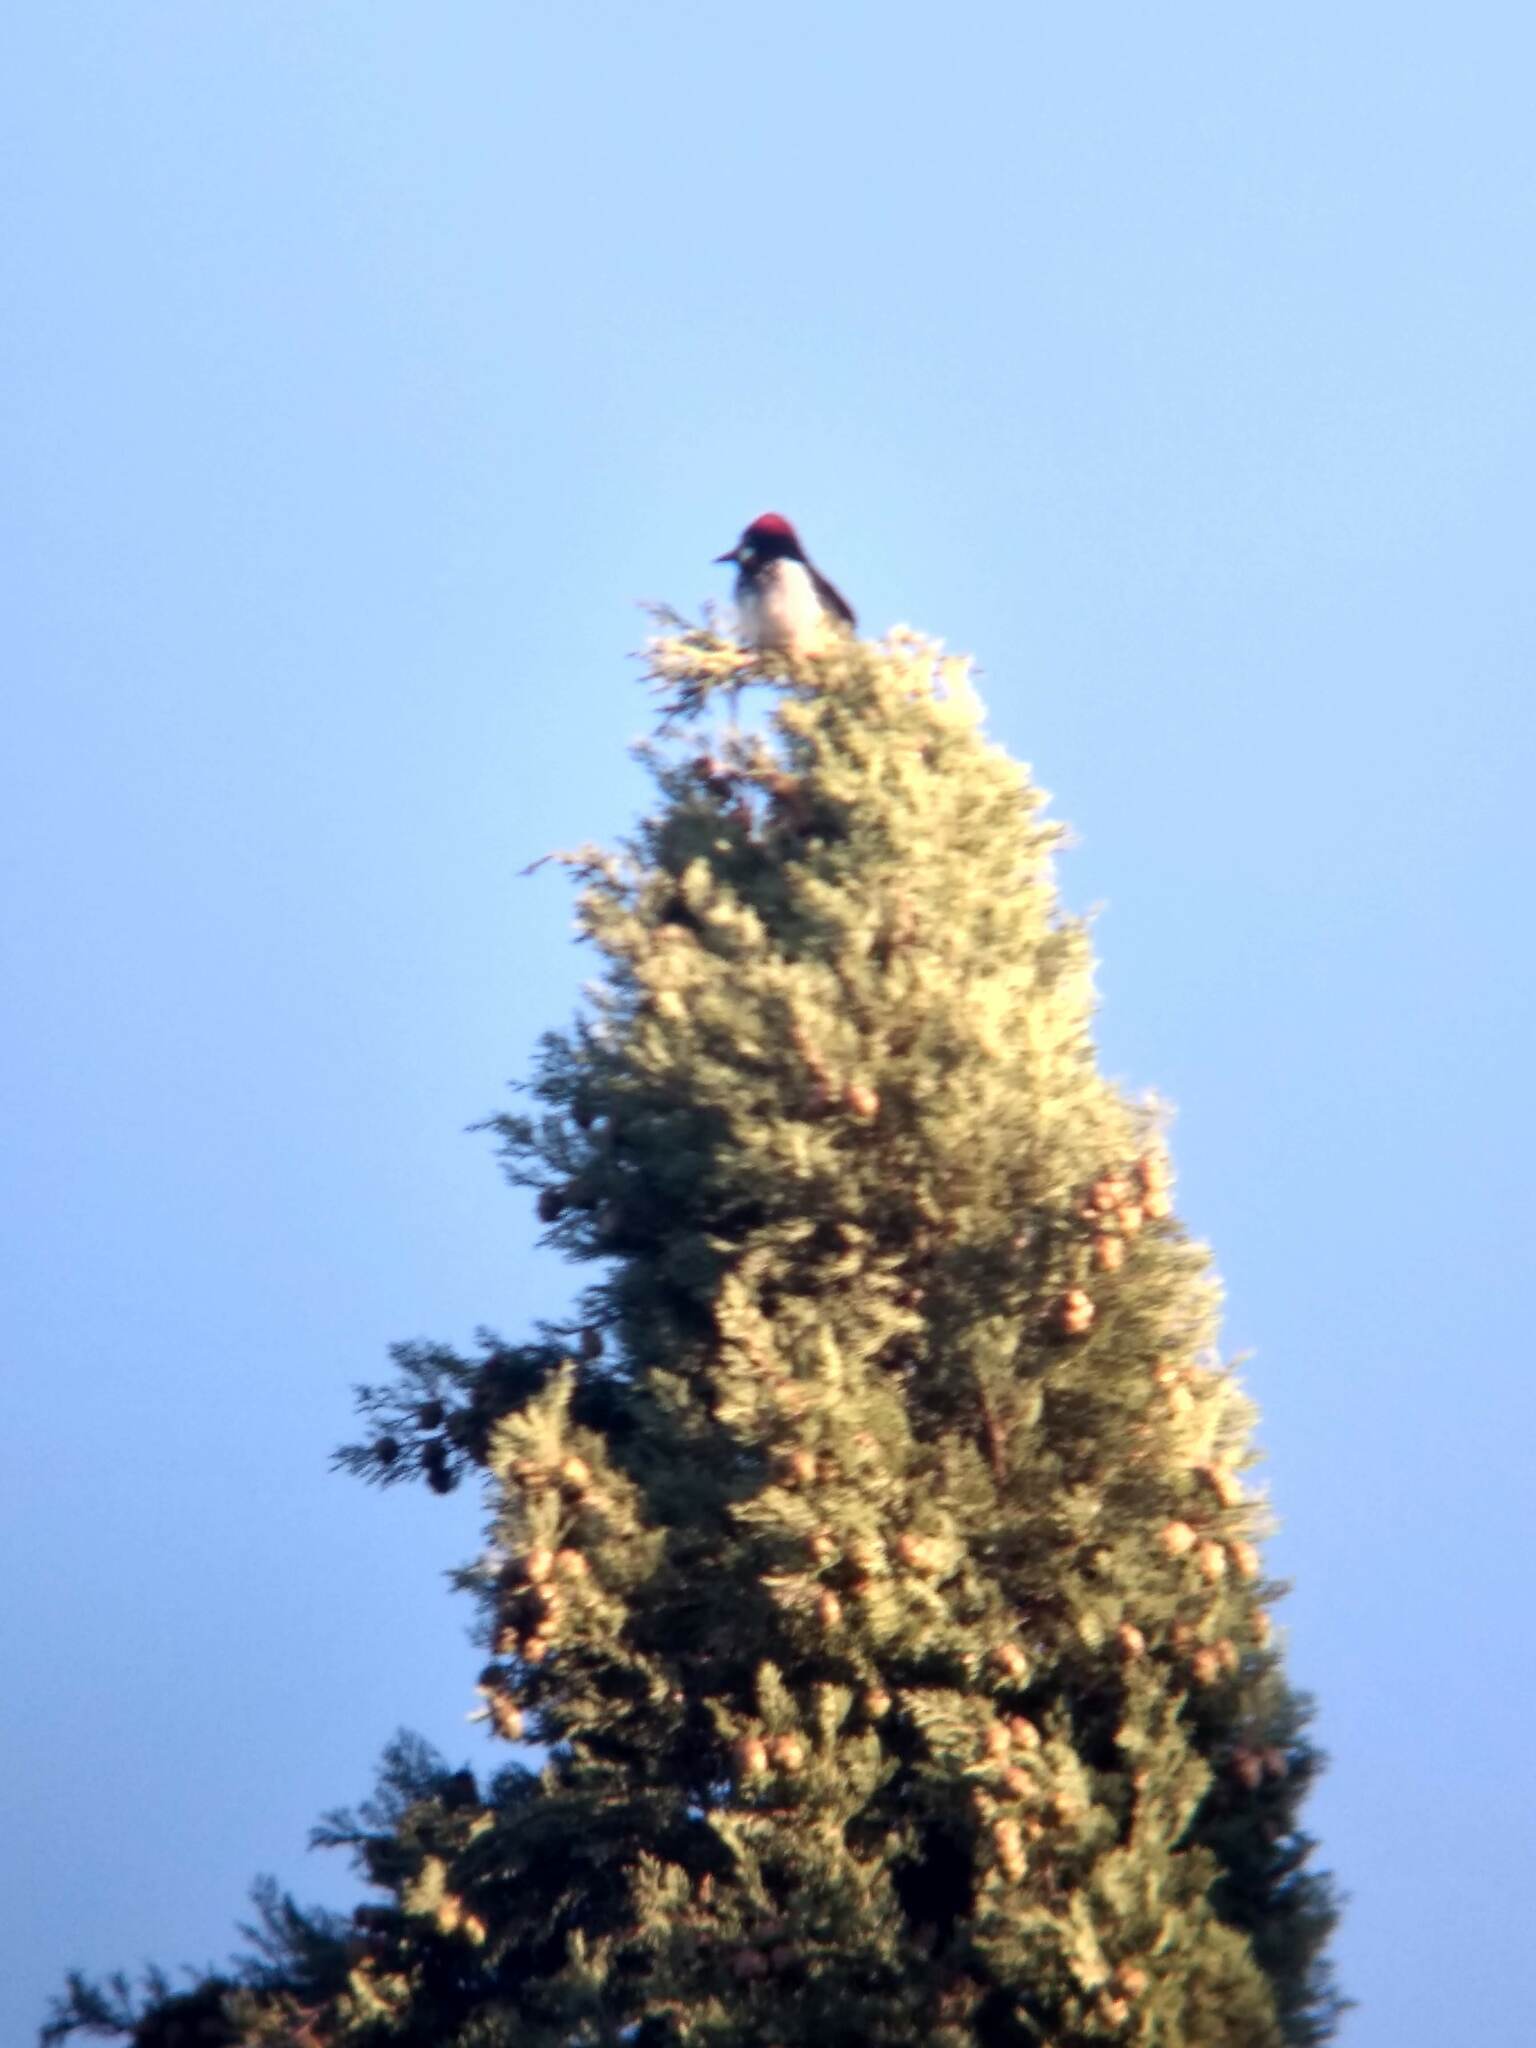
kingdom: Animalia
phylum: Chordata
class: Aves
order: Piciformes
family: Picidae
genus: Melanerpes
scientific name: Melanerpes formicivorus
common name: Acorn woodpecker
